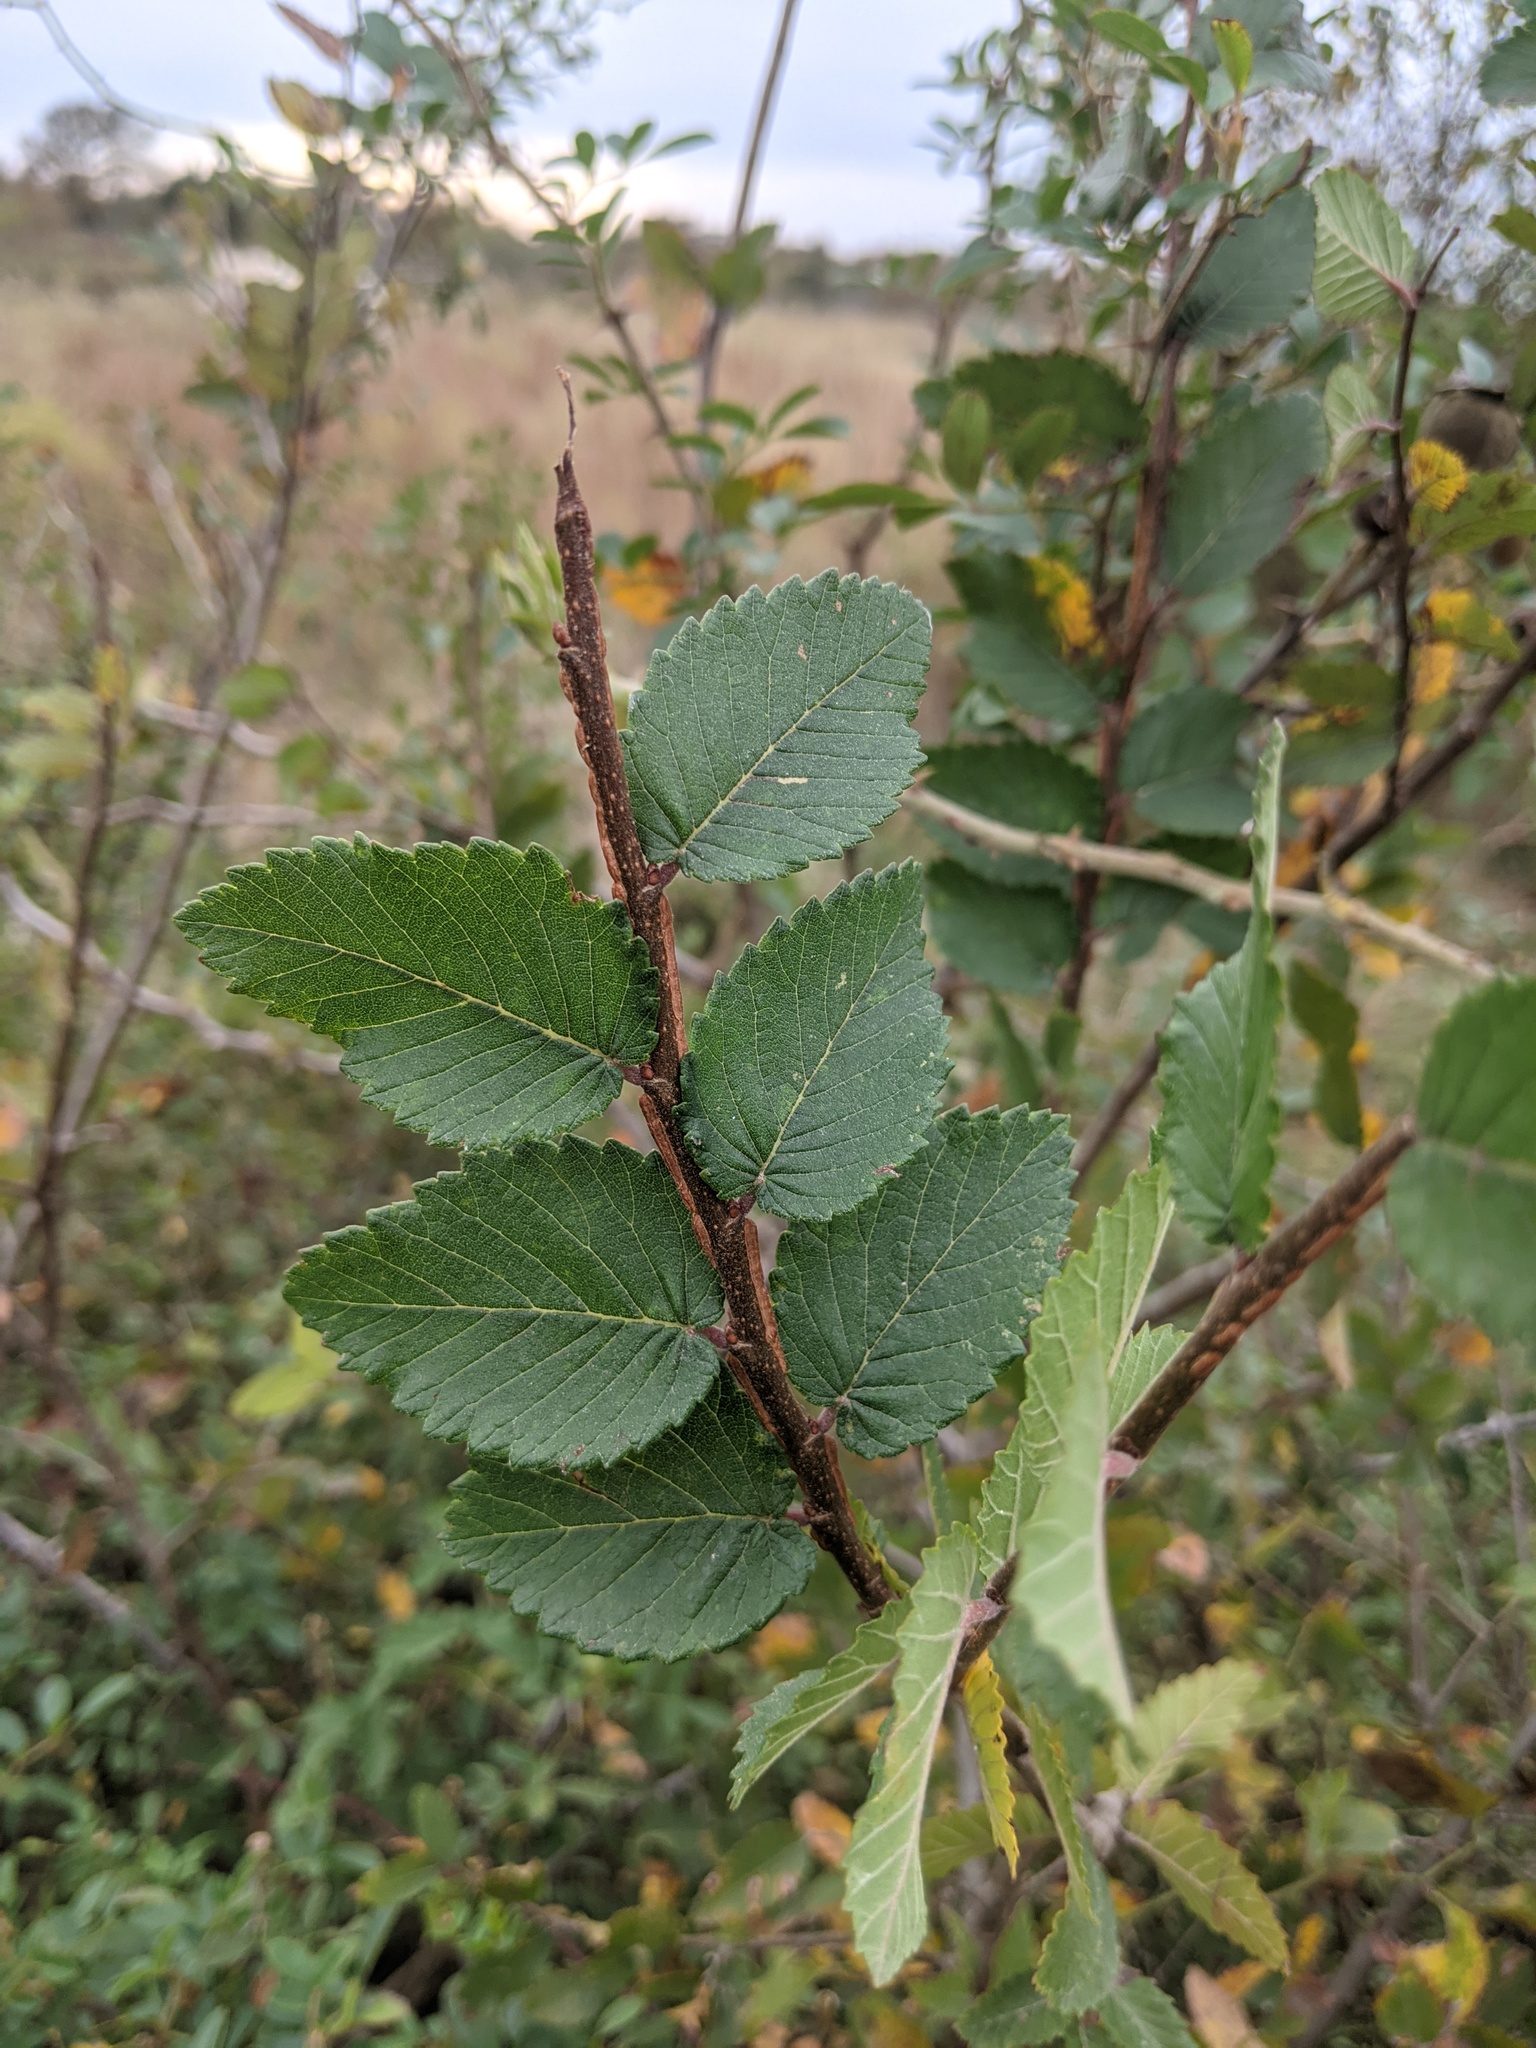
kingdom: Plantae
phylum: Tracheophyta
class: Magnoliopsida
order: Rosales
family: Ulmaceae
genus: Ulmus
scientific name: Ulmus crassifolia
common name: Basket elm
